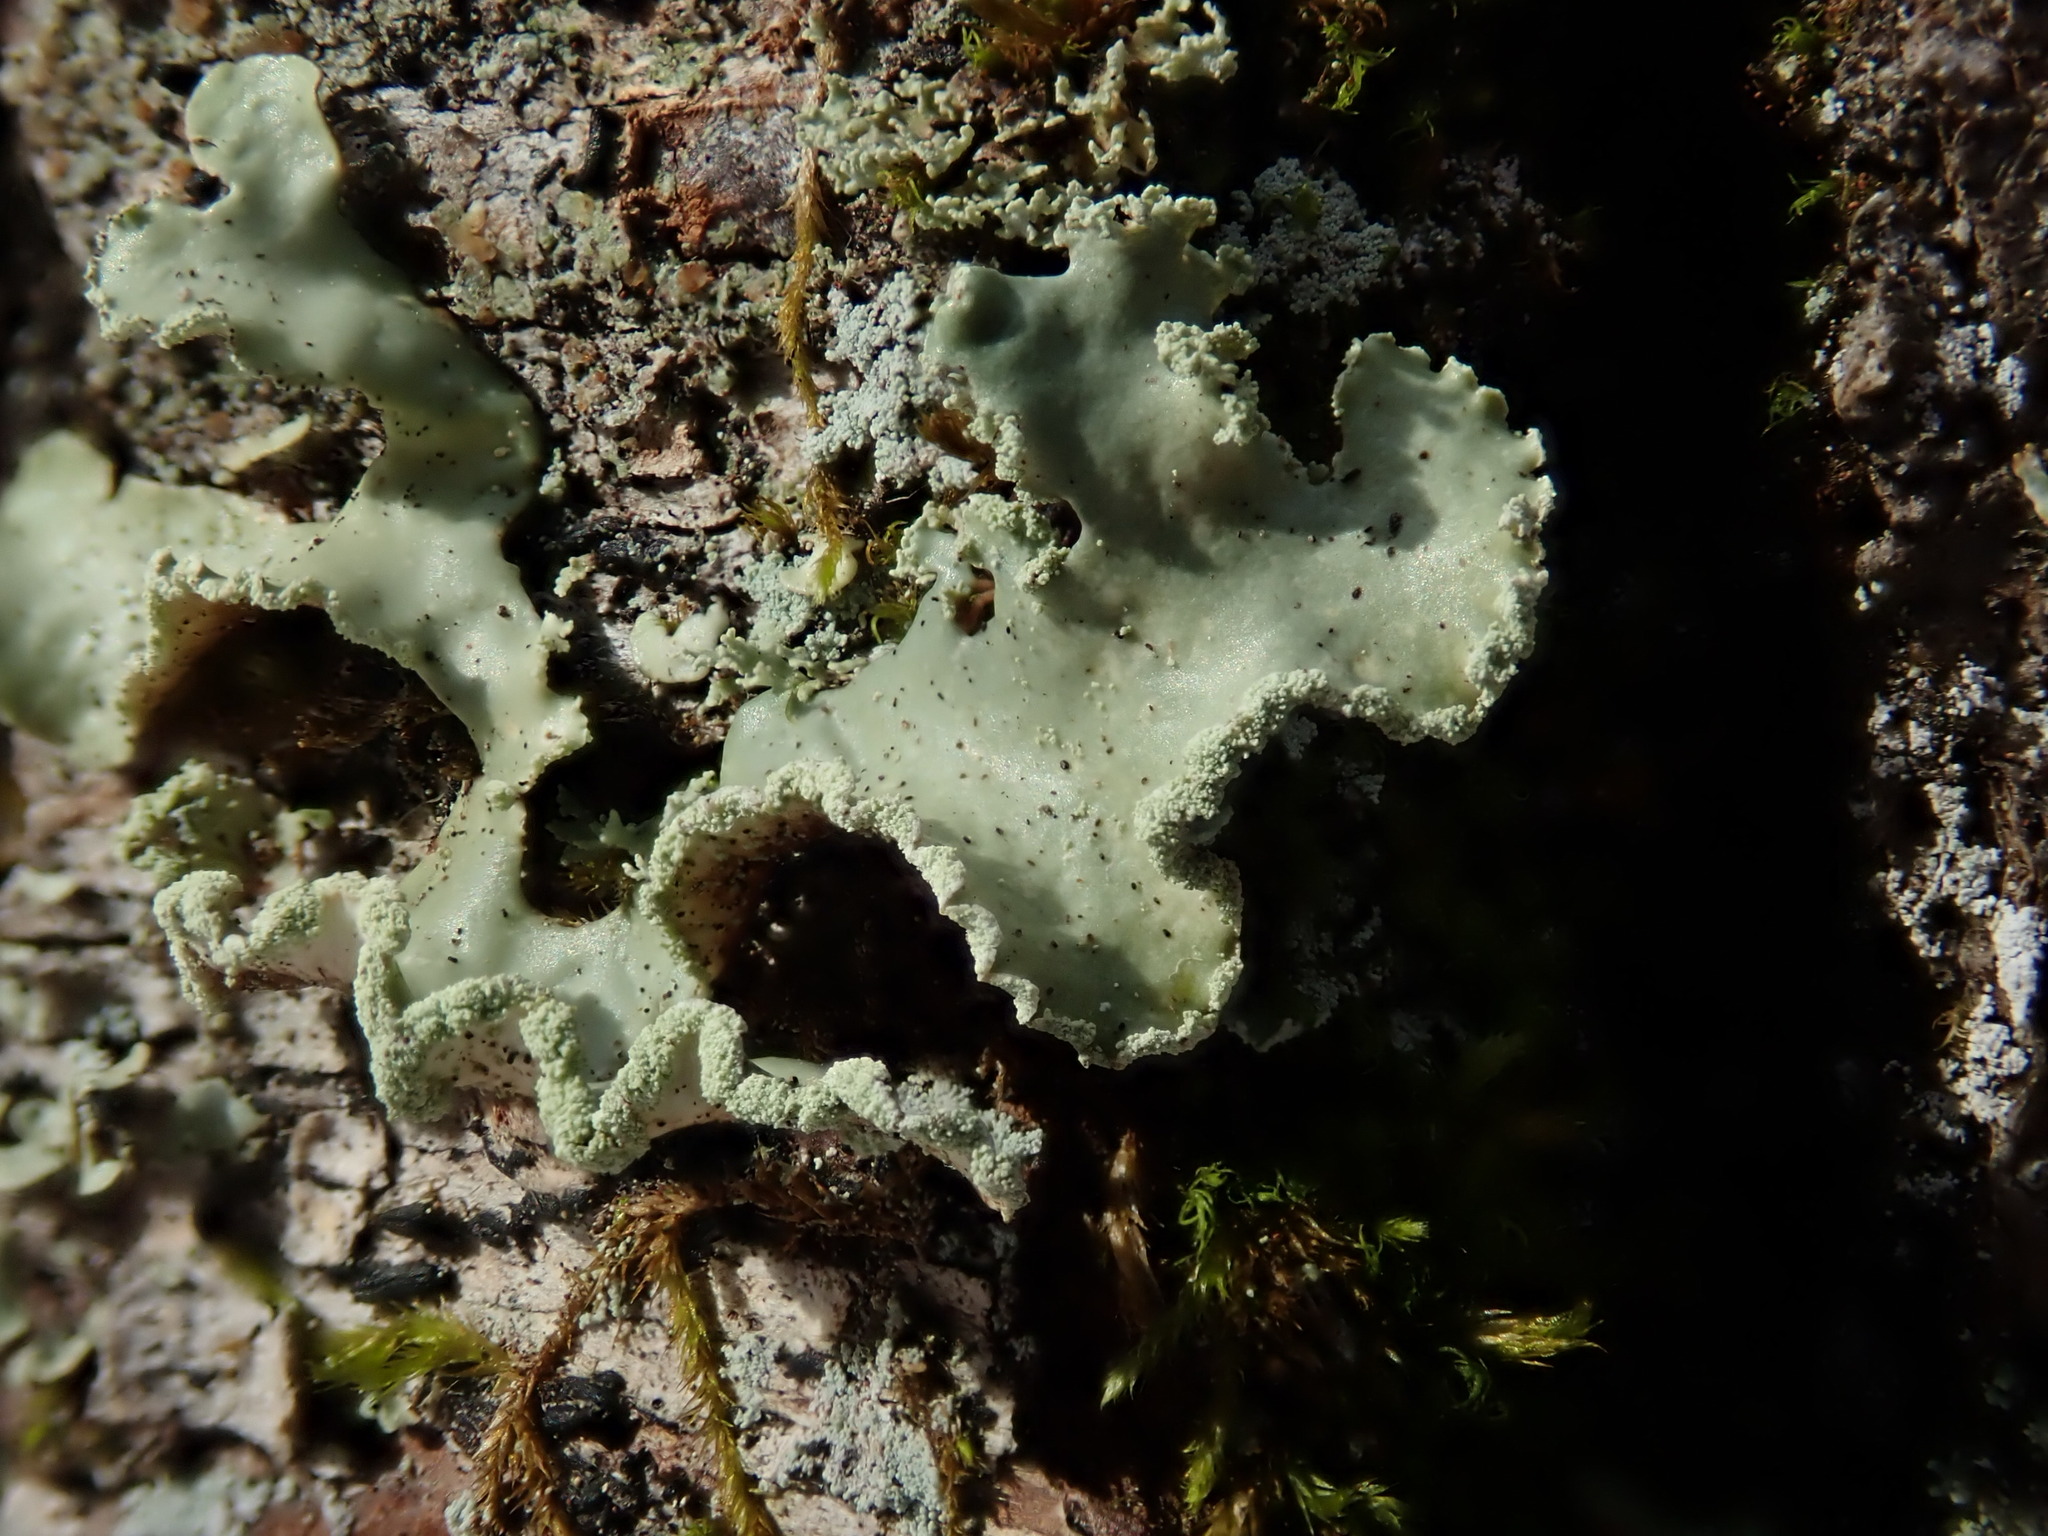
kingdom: Fungi
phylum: Ascomycota
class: Lecanoromycetes
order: Lecanorales
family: Parmeliaceae
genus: Usnocetraria
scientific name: Usnocetraria oakesiana
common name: Yellow ribbon lichen
